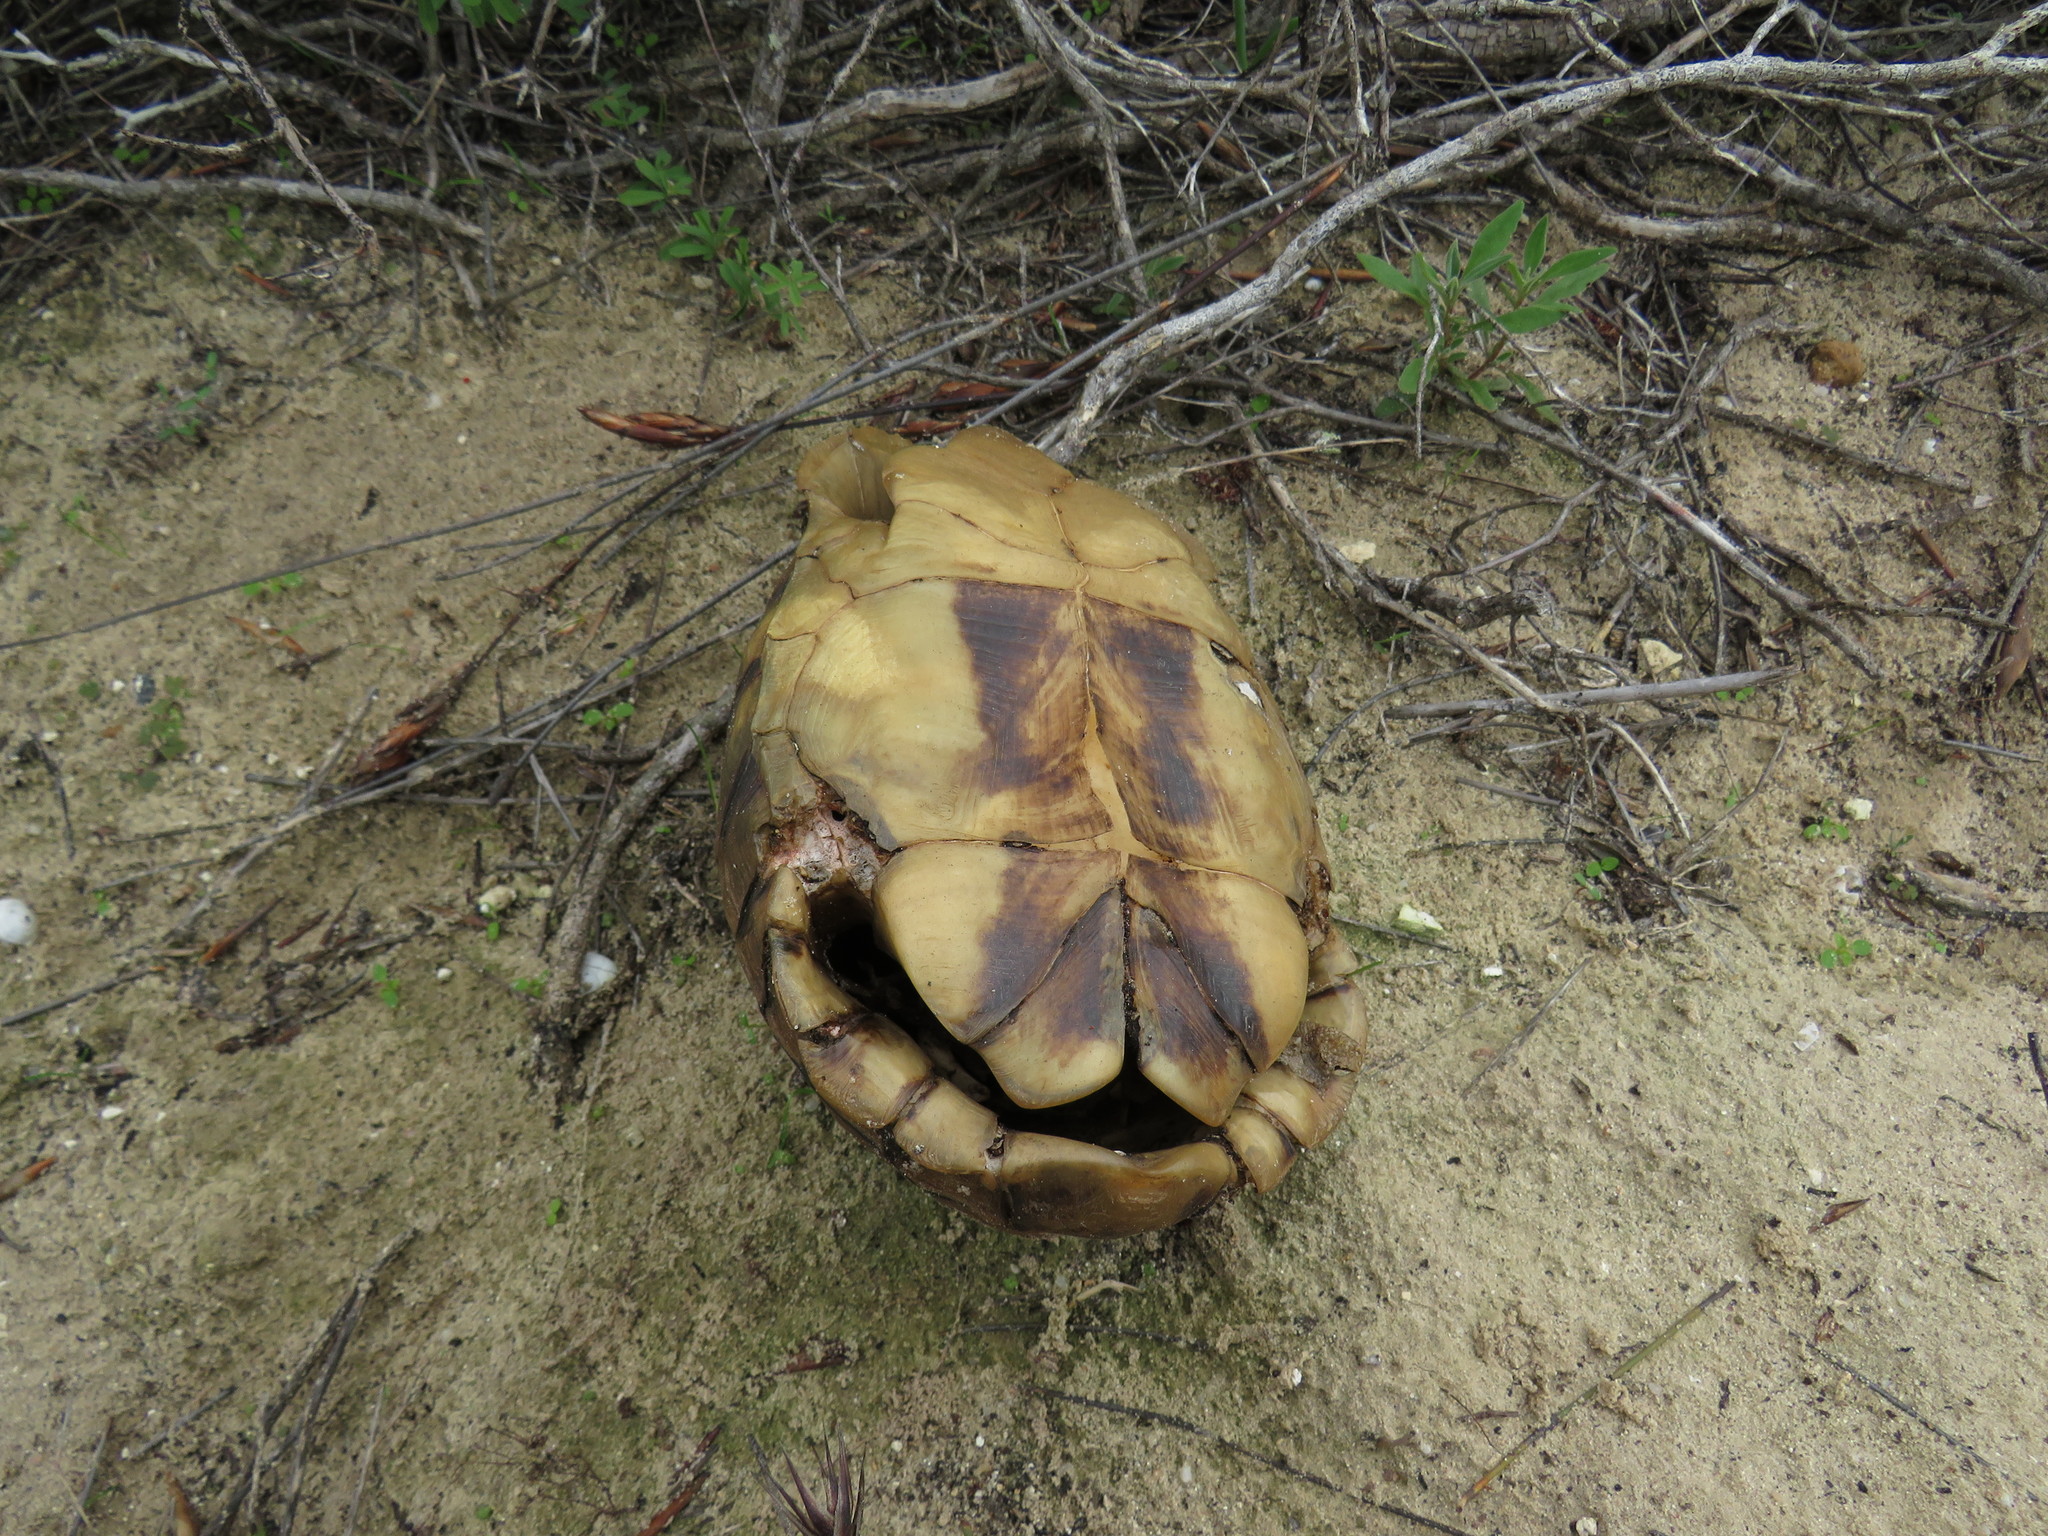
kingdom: Animalia
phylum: Chordata
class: Testudines
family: Testudinidae
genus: Chersina
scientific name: Chersina angulata
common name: South african bowsprit tortoise
